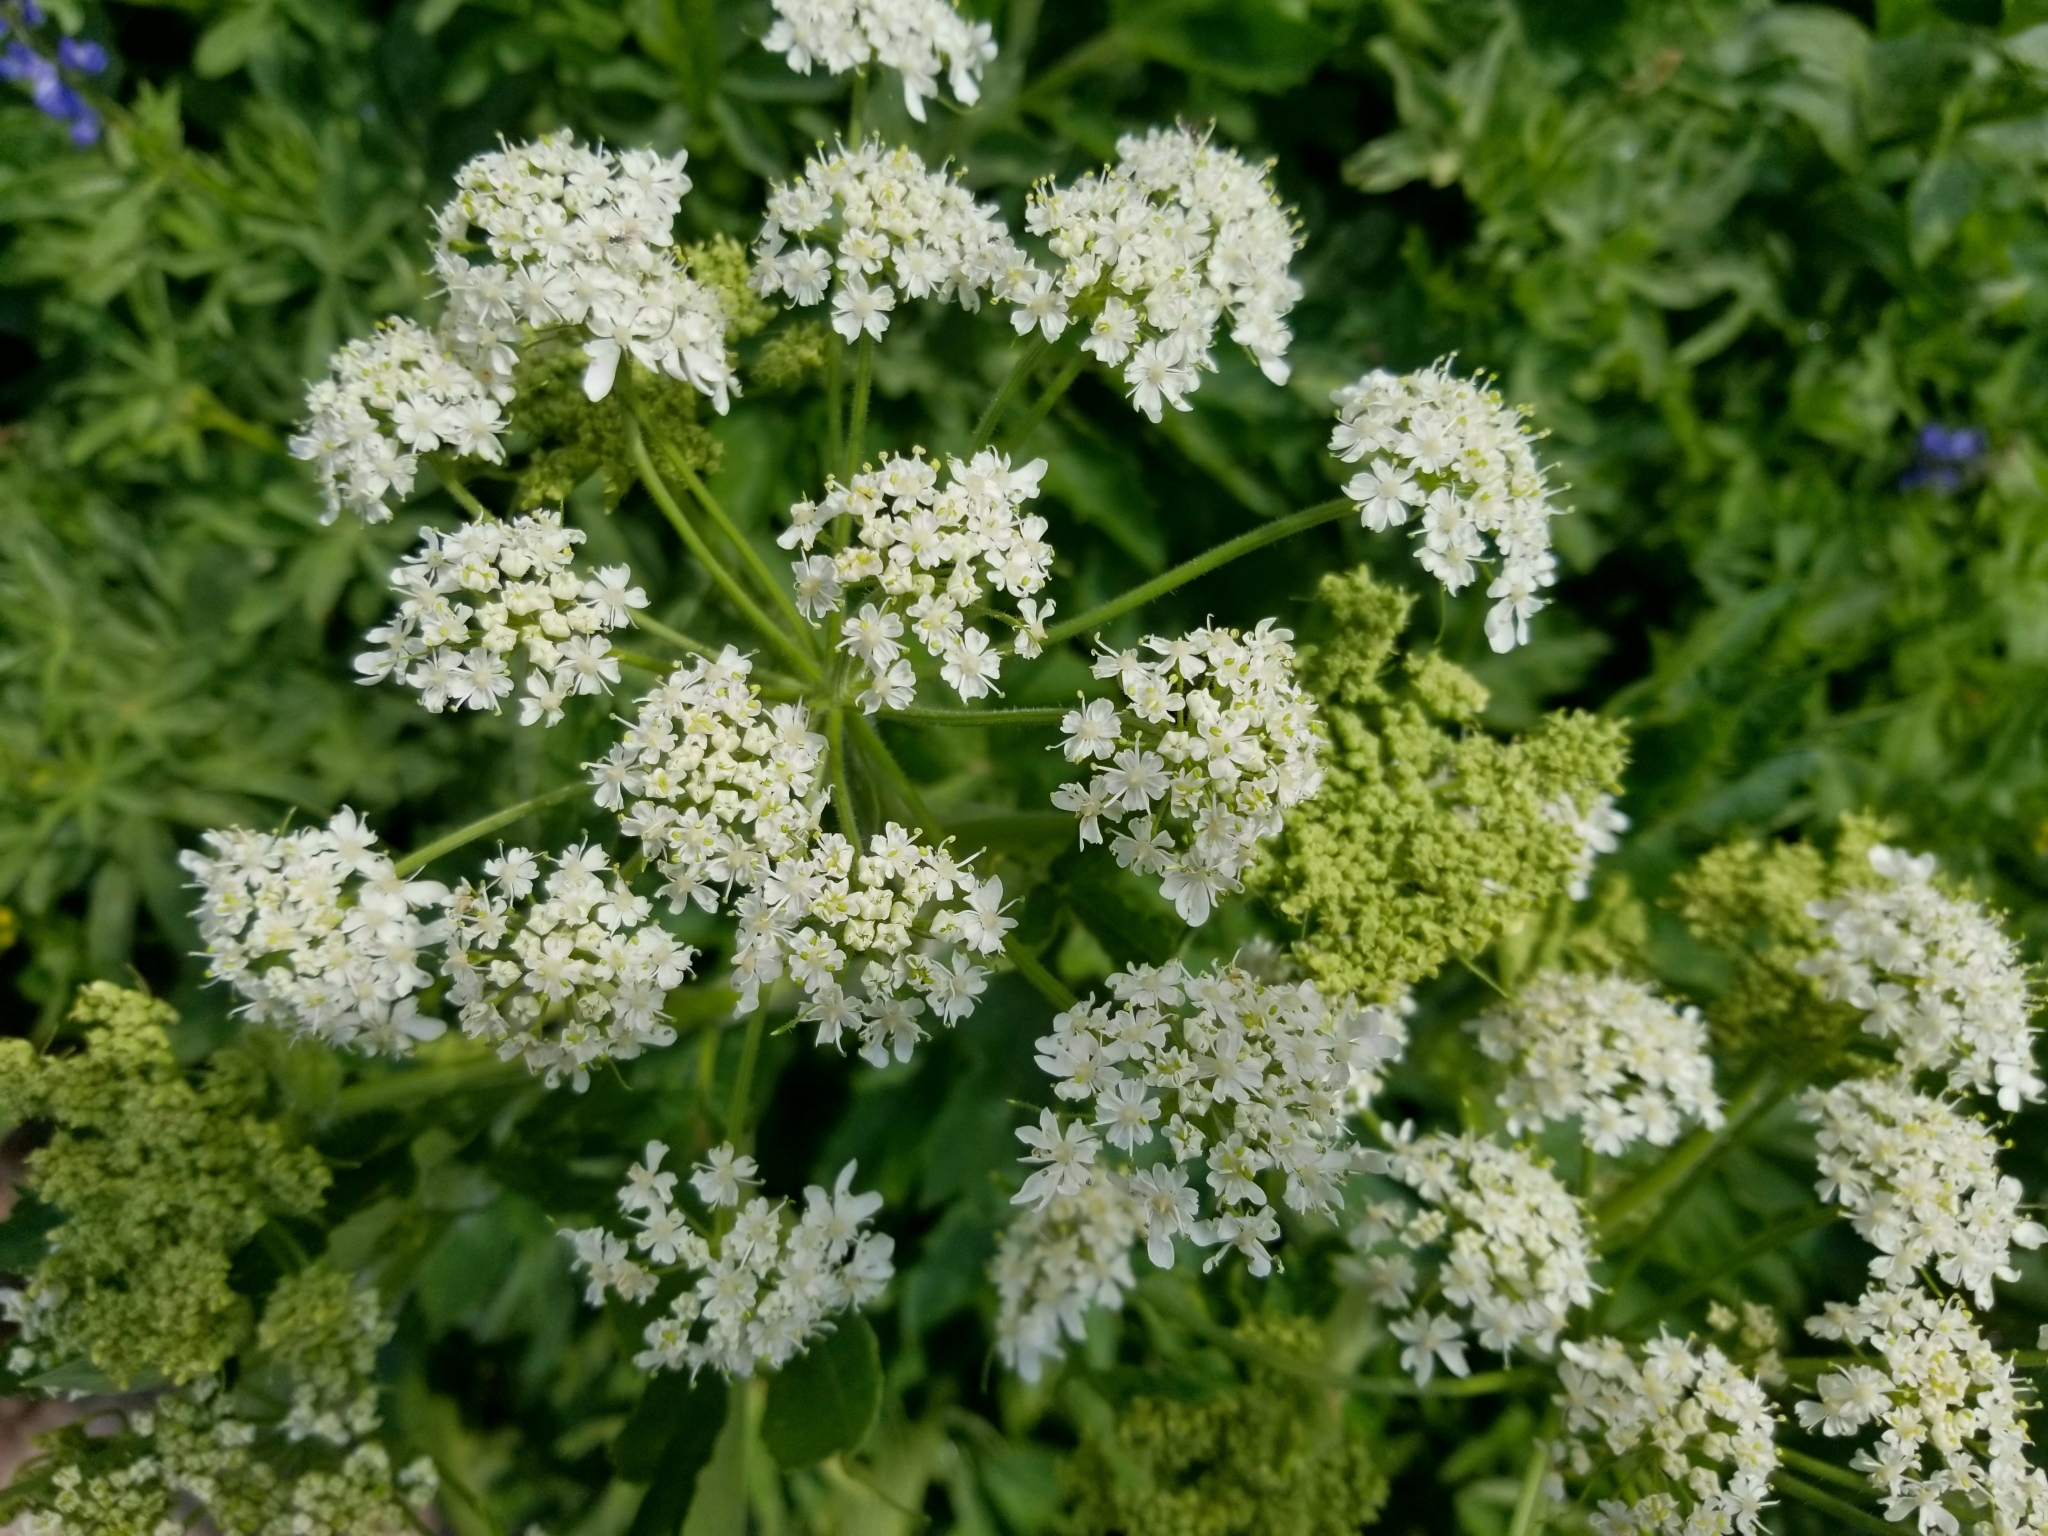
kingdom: Plantae
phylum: Tracheophyta
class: Magnoliopsida
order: Apiales
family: Apiaceae
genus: Conium
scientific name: Conium maculatum
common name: Hemlock
